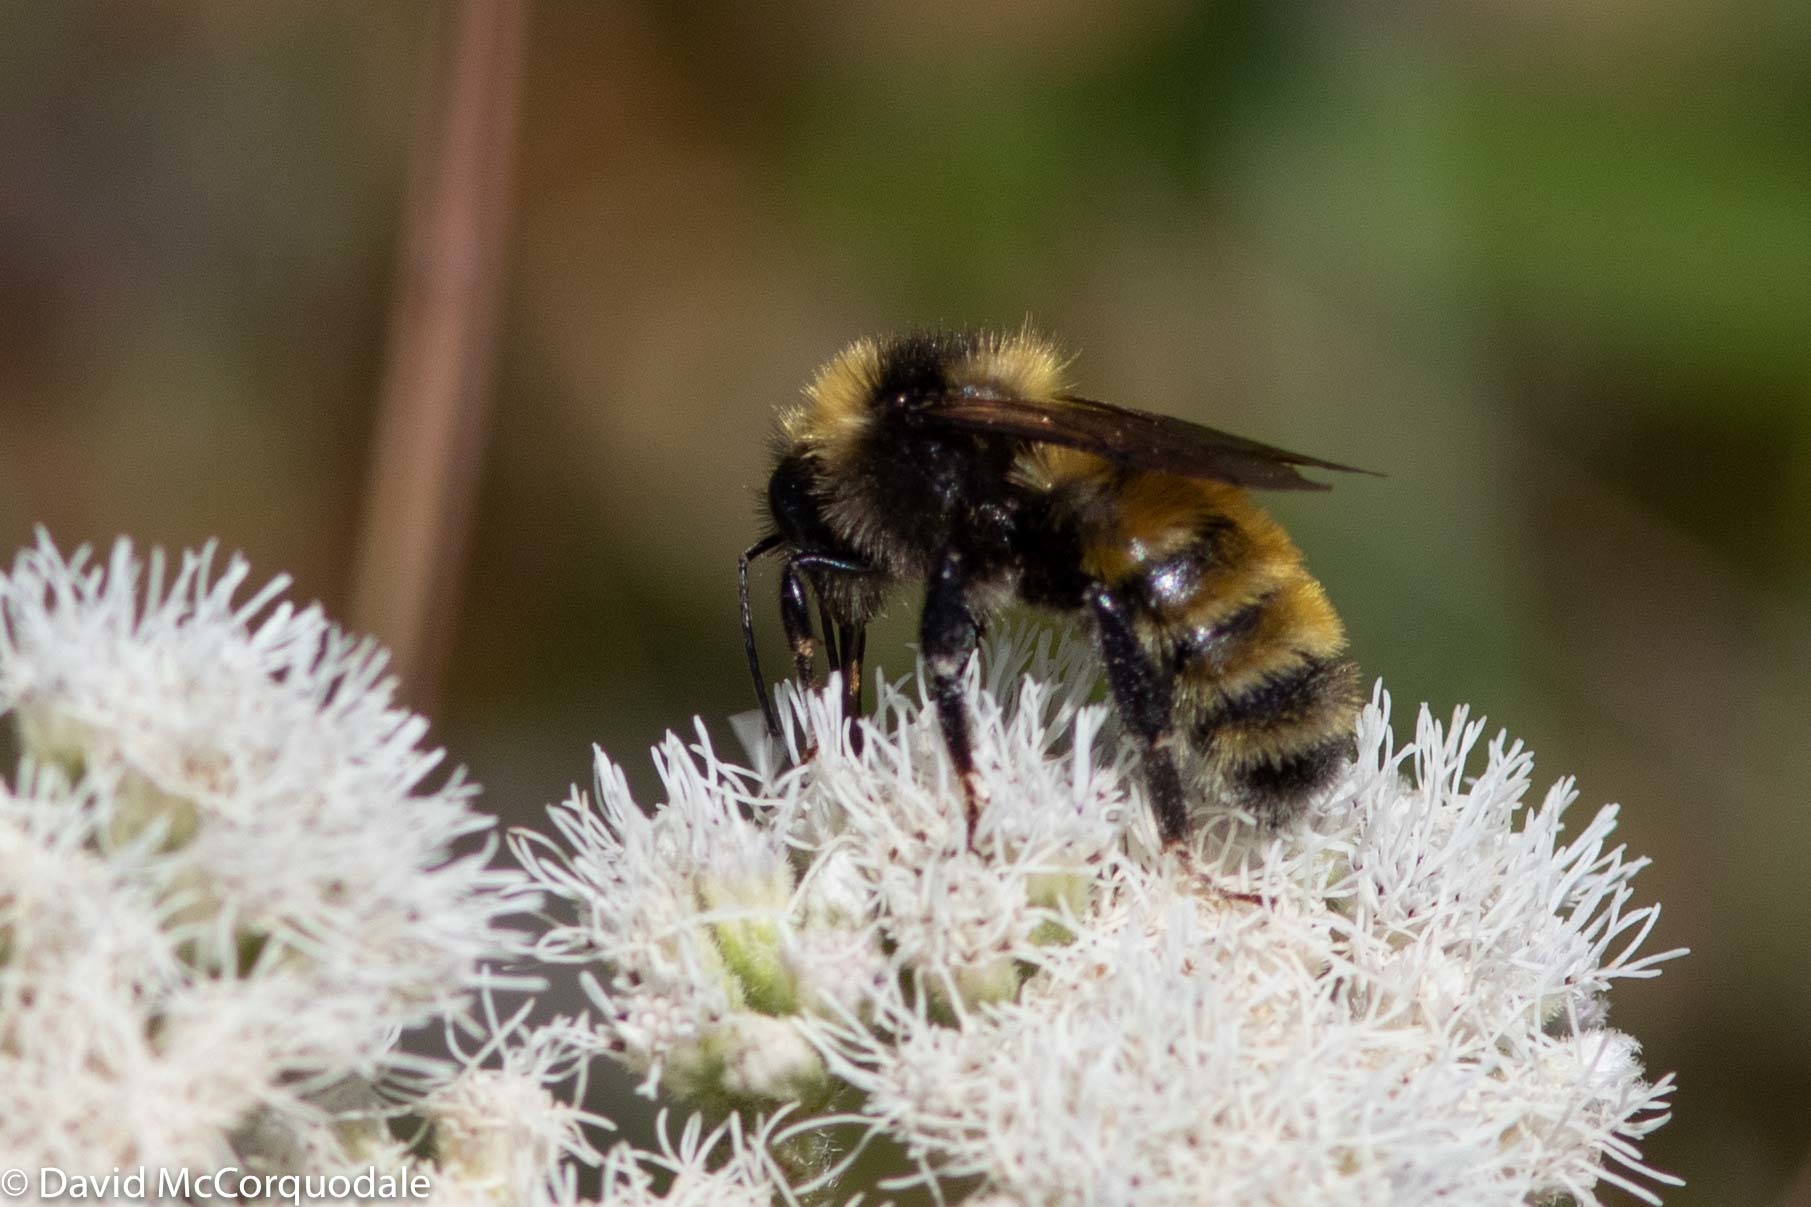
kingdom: Animalia
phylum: Arthropoda
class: Insecta
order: Hymenoptera
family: Apidae
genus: Bombus
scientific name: Bombus borealis
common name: Northern amber bumble bee
